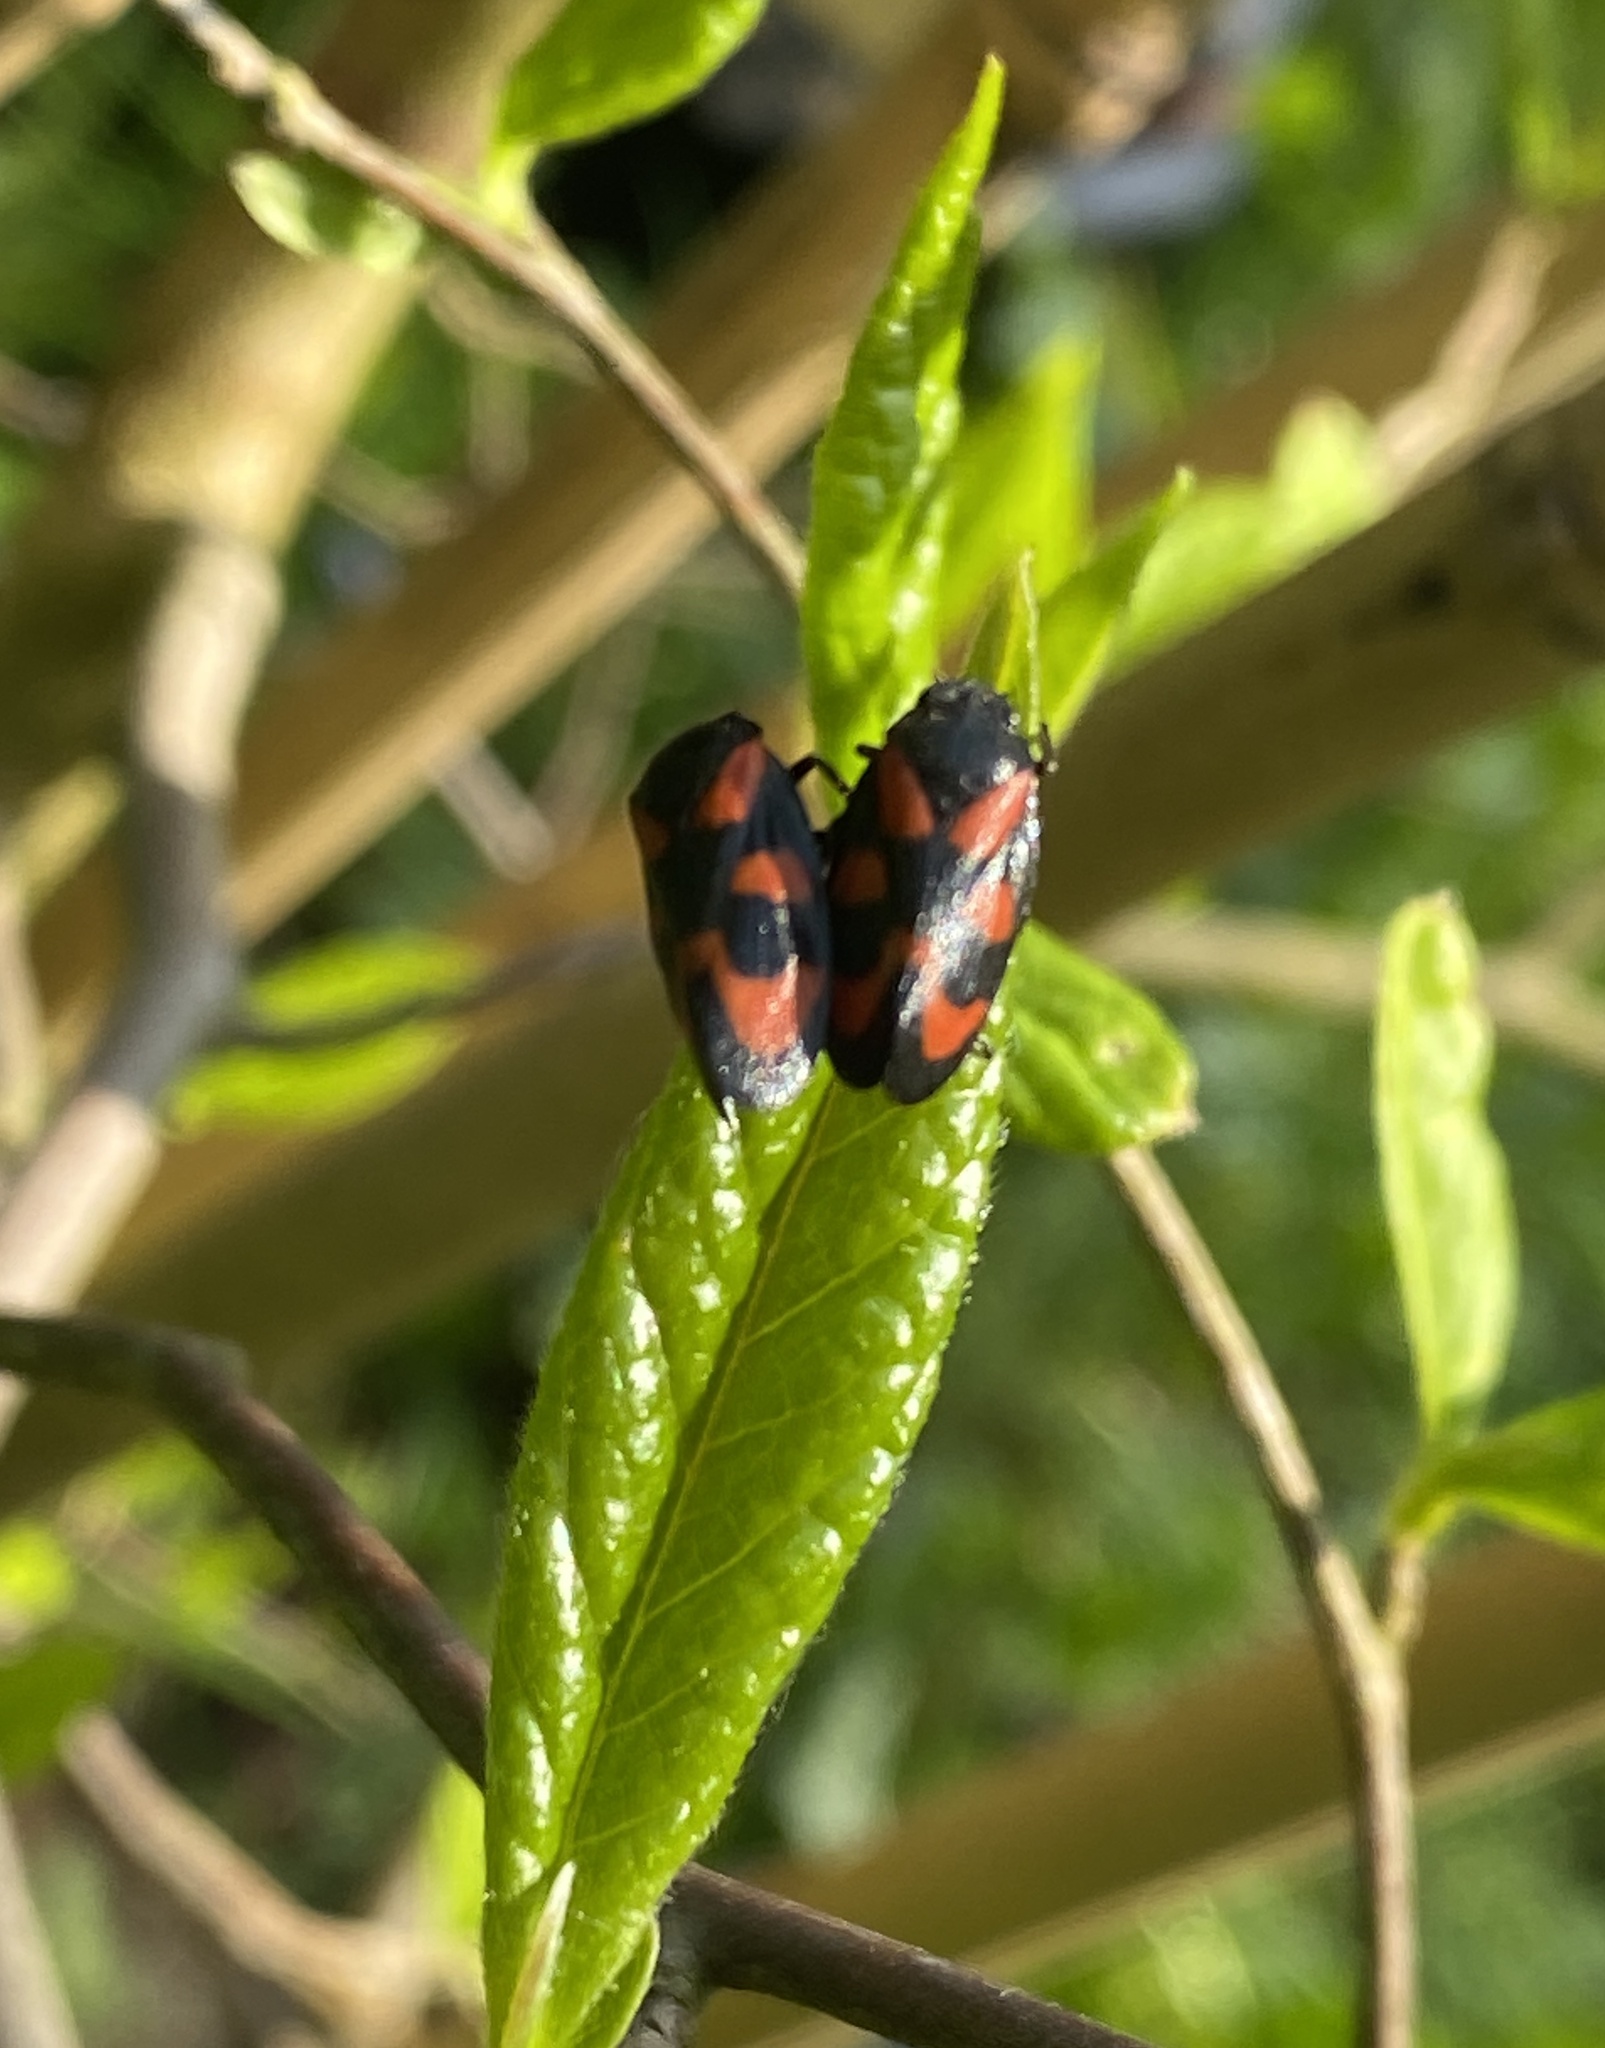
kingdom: Animalia
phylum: Arthropoda
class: Insecta
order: Hemiptera
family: Cercopidae
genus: Cercopis
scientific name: Cercopis vulnerata
